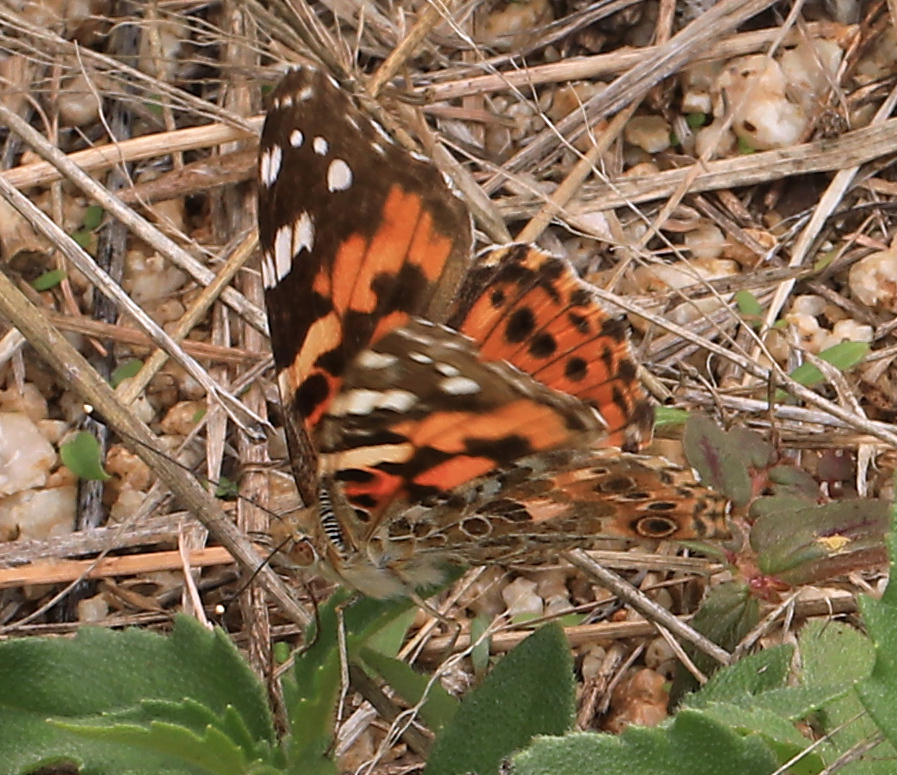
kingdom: Animalia
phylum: Arthropoda
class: Insecta
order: Lepidoptera
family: Nymphalidae
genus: Vanessa
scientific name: Vanessa cardui
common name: Painted lady
